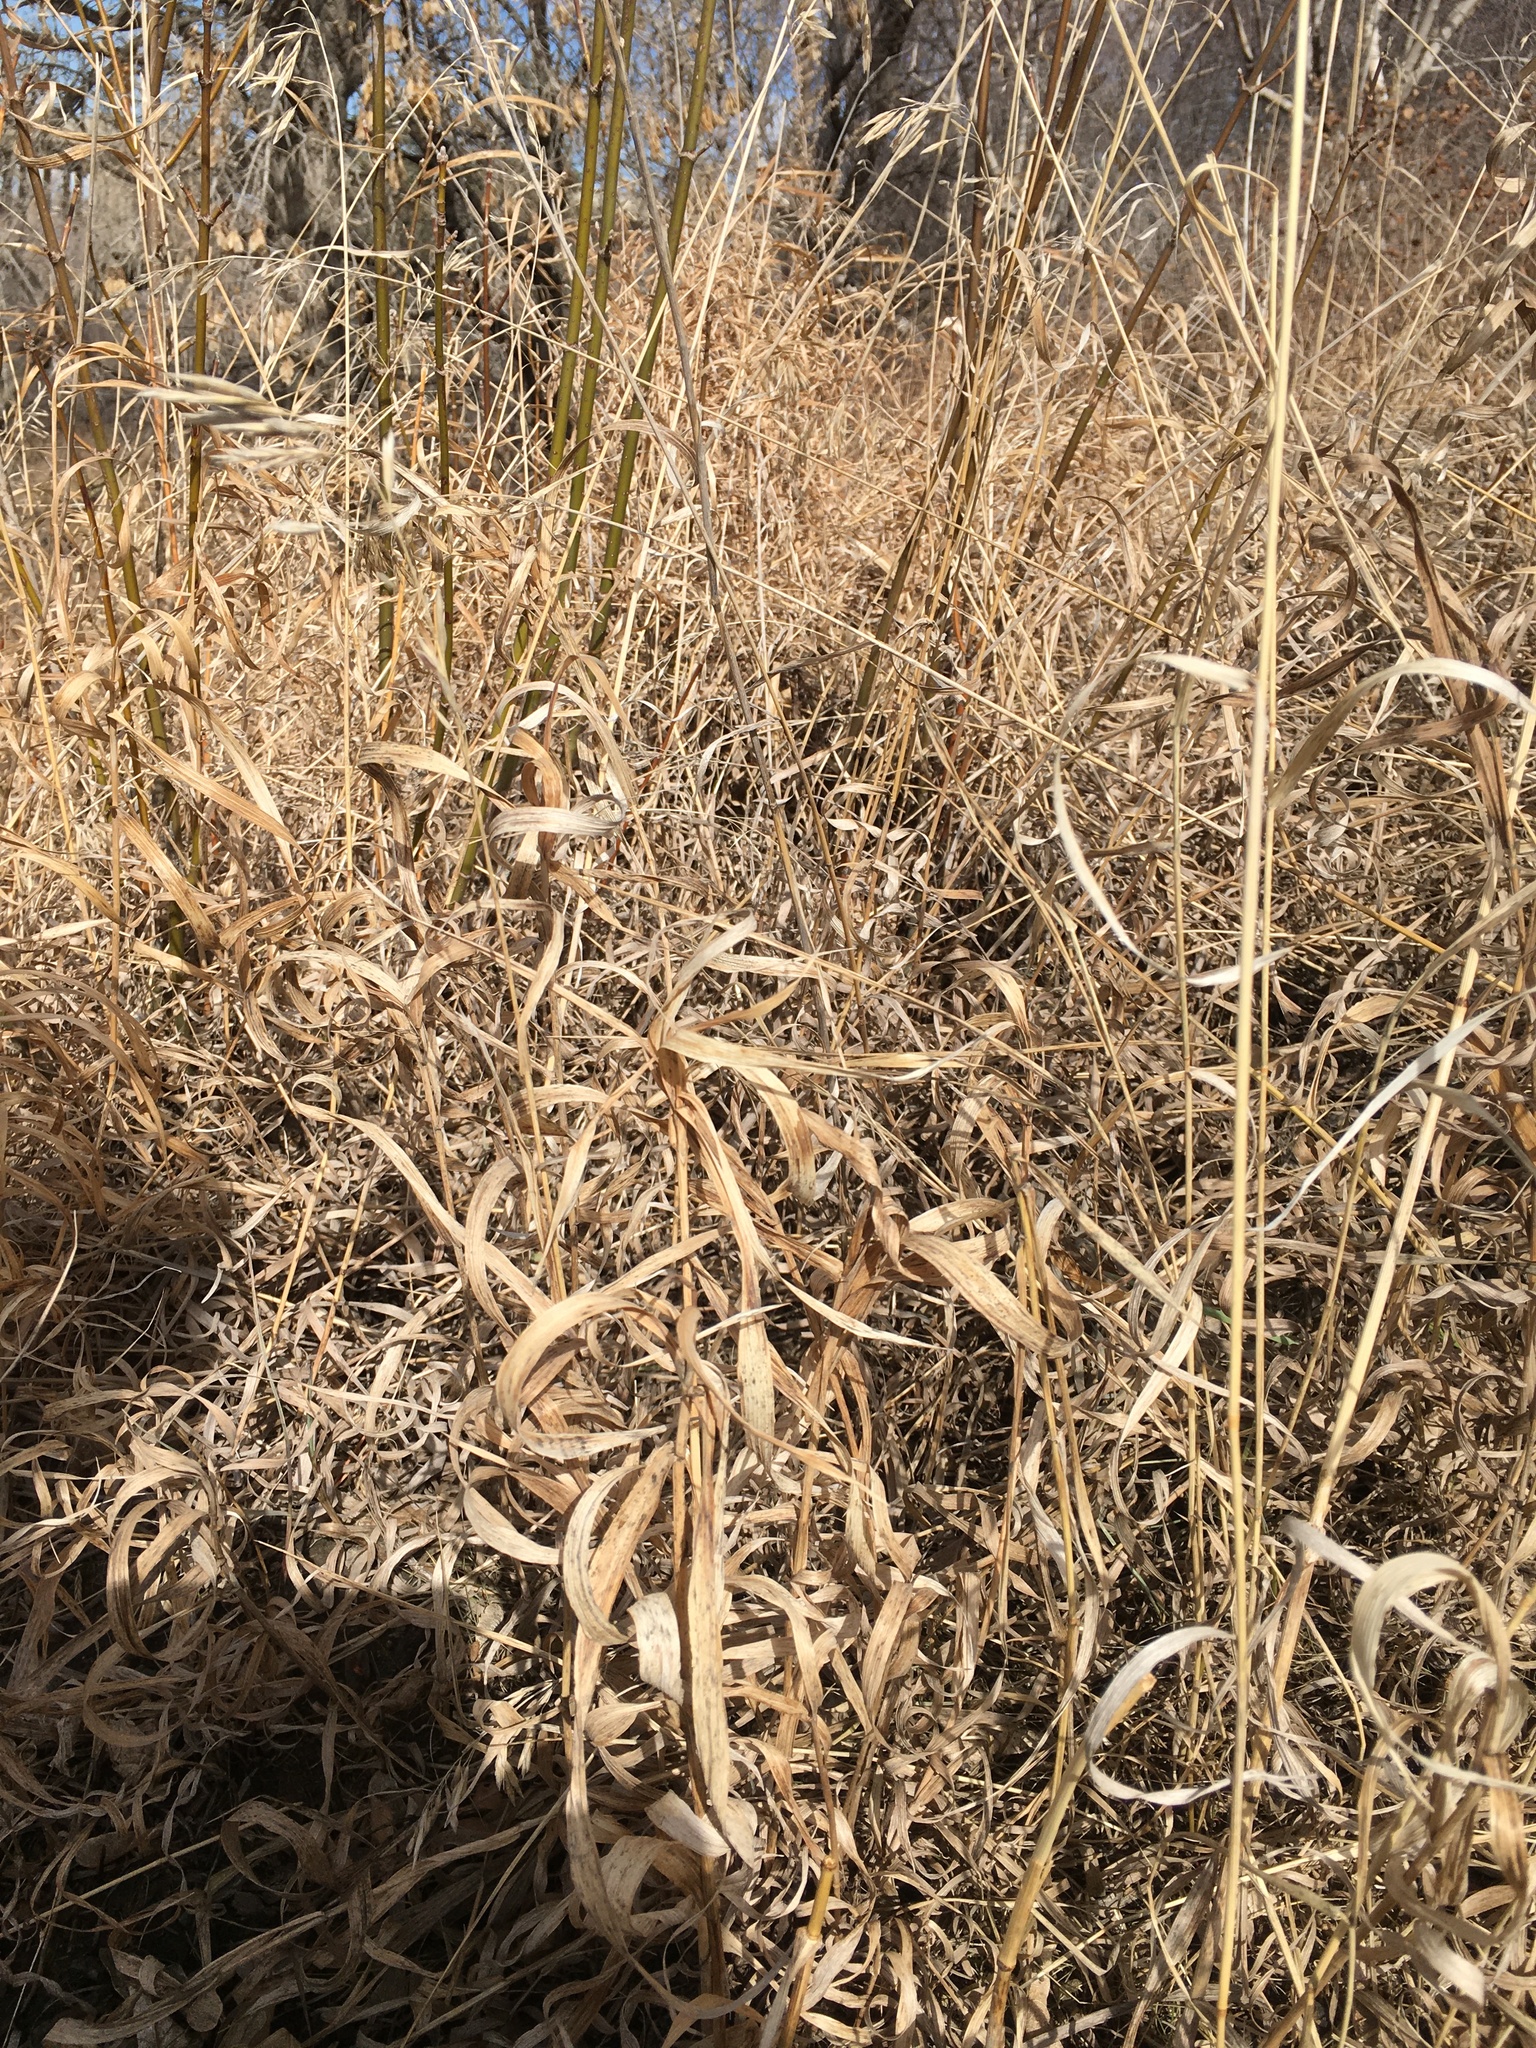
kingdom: Plantae
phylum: Tracheophyta
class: Liliopsida
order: Poales
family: Poaceae
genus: Bromus
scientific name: Bromus inermis
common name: Smooth brome
